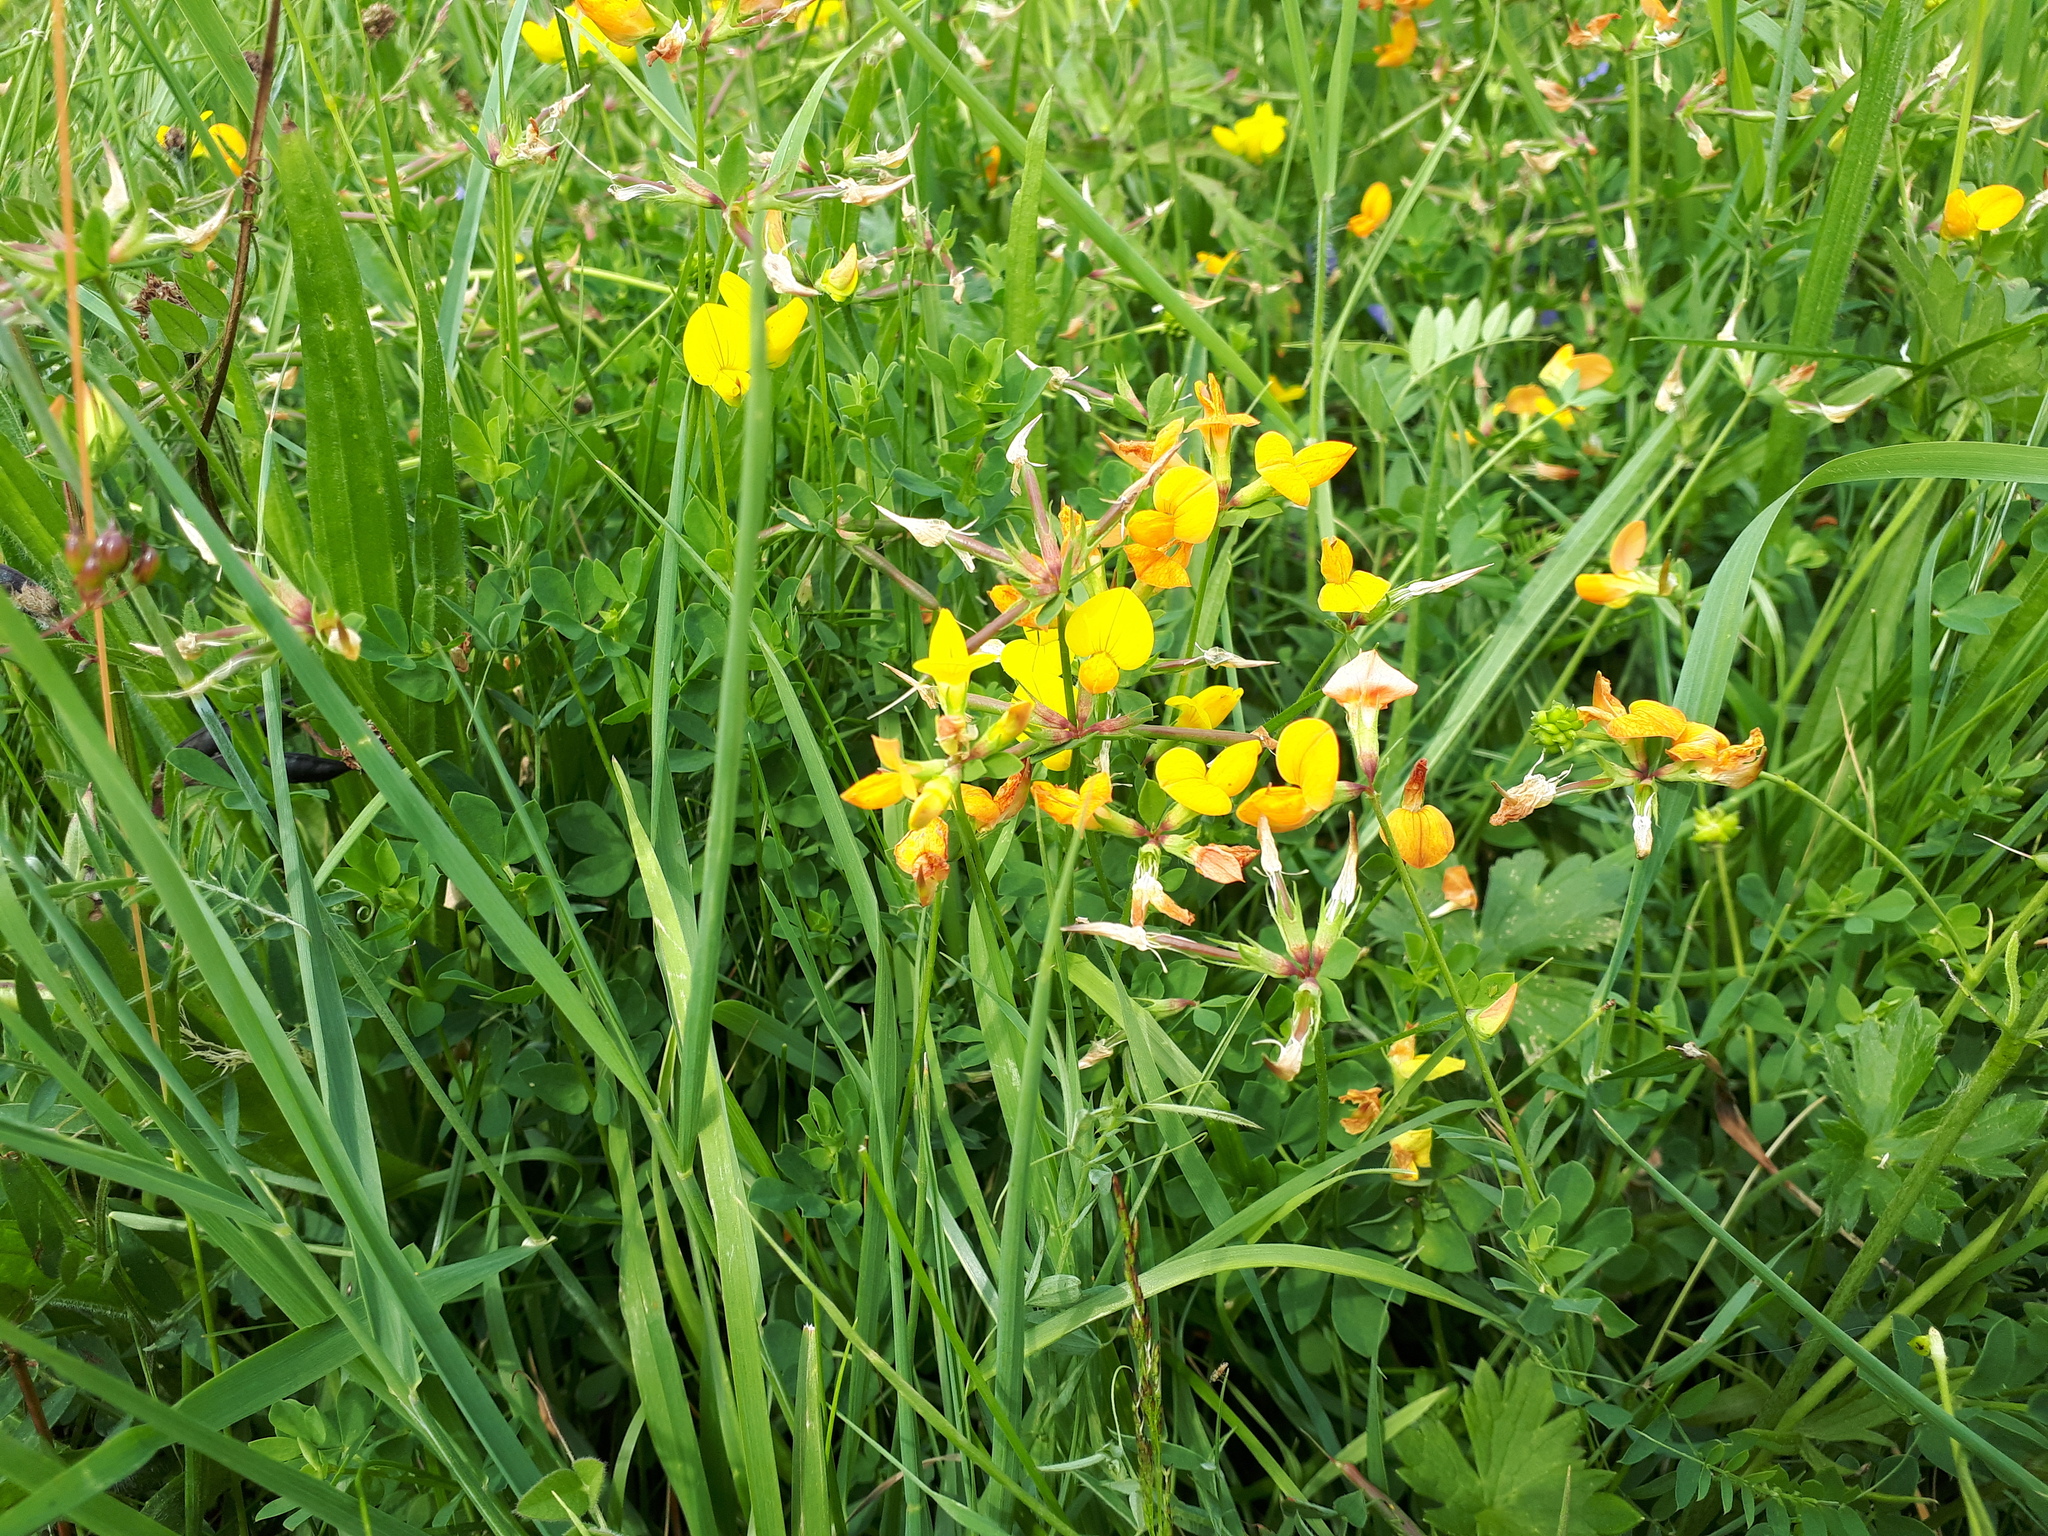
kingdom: Plantae
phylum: Tracheophyta
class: Magnoliopsida
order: Fabales
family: Fabaceae
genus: Lotus
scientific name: Lotus corniculatus
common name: Common bird's-foot-trefoil
